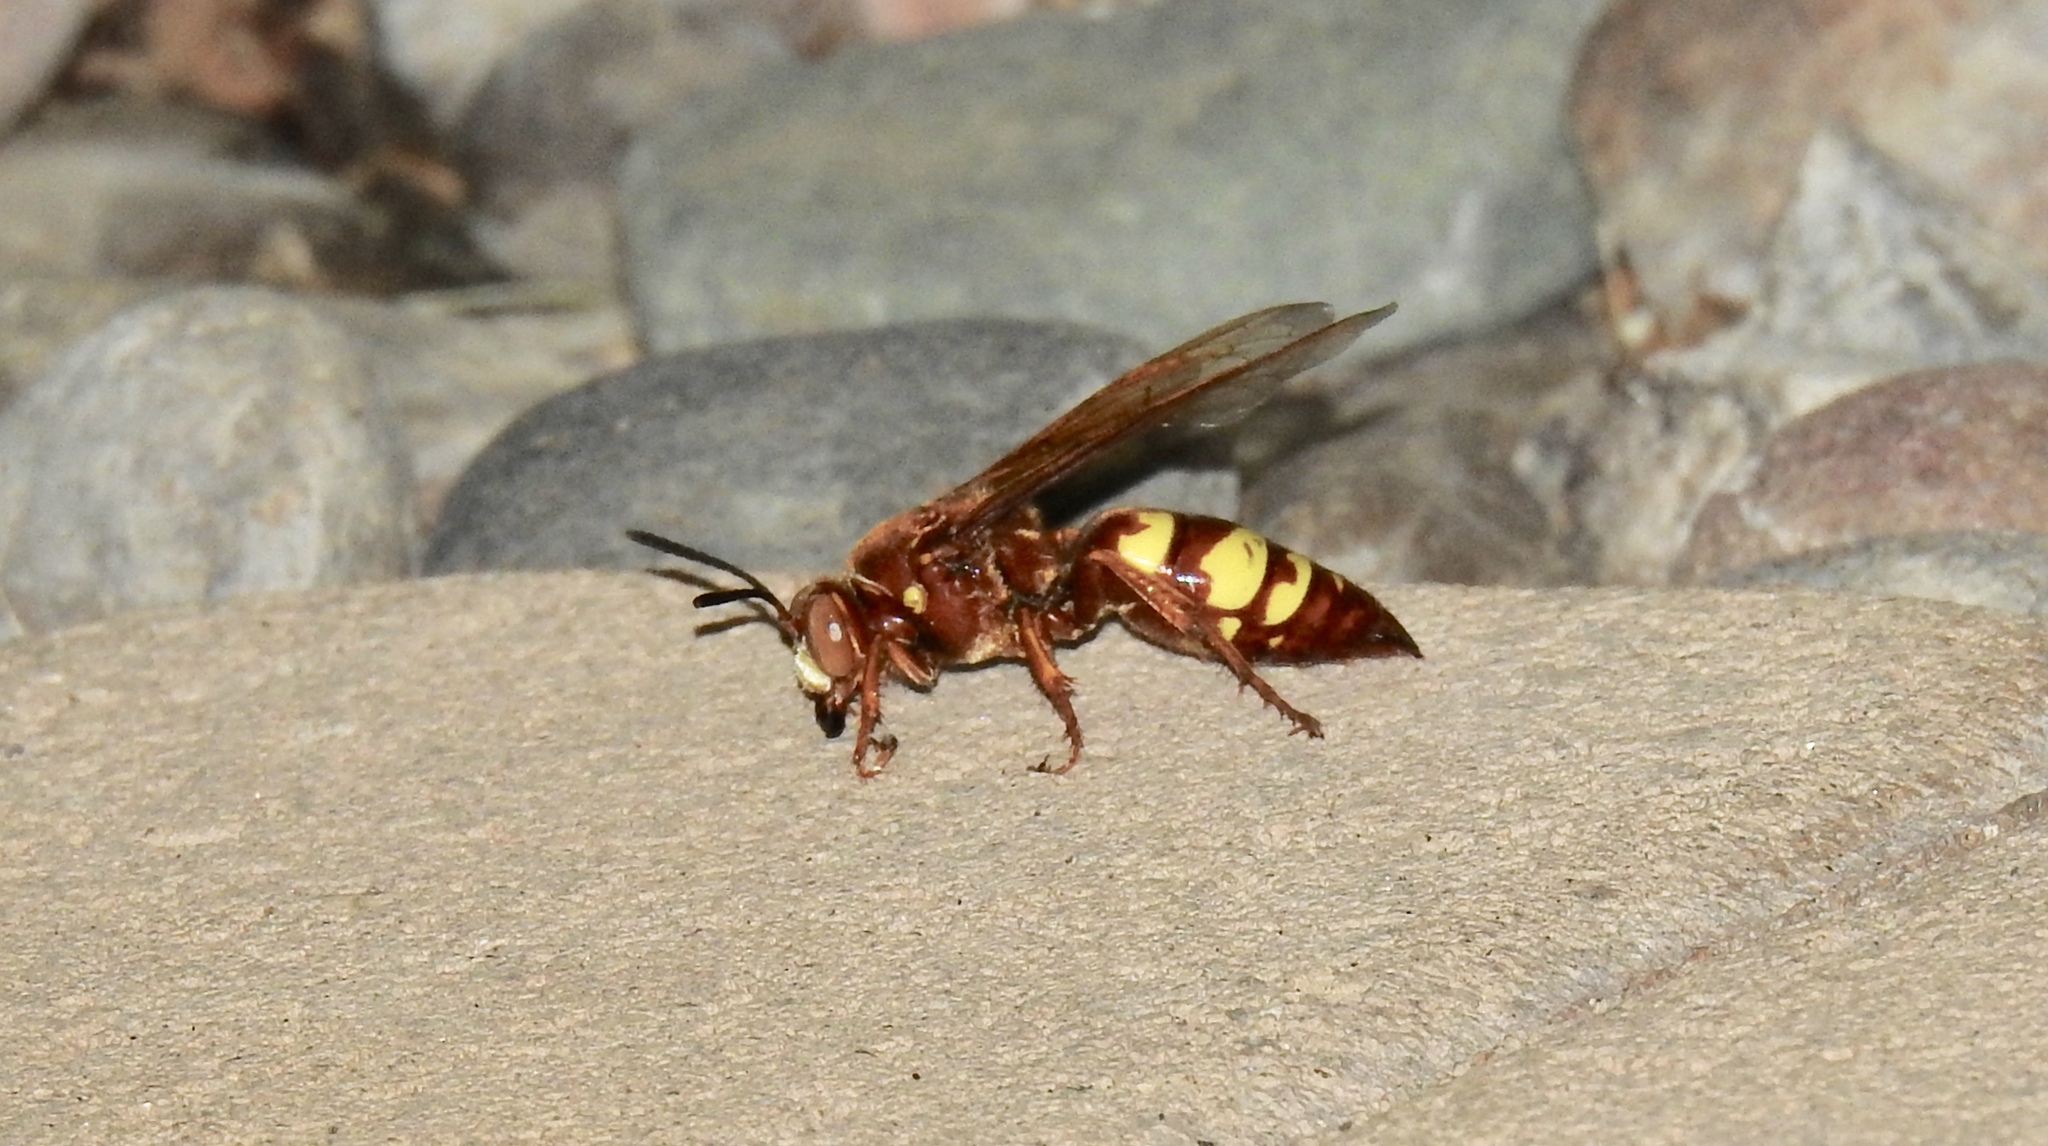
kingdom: Animalia
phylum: Arthropoda
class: Insecta
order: Hymenoptera
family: Crabronidae
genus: Sphecius
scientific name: Sphecius convallis
